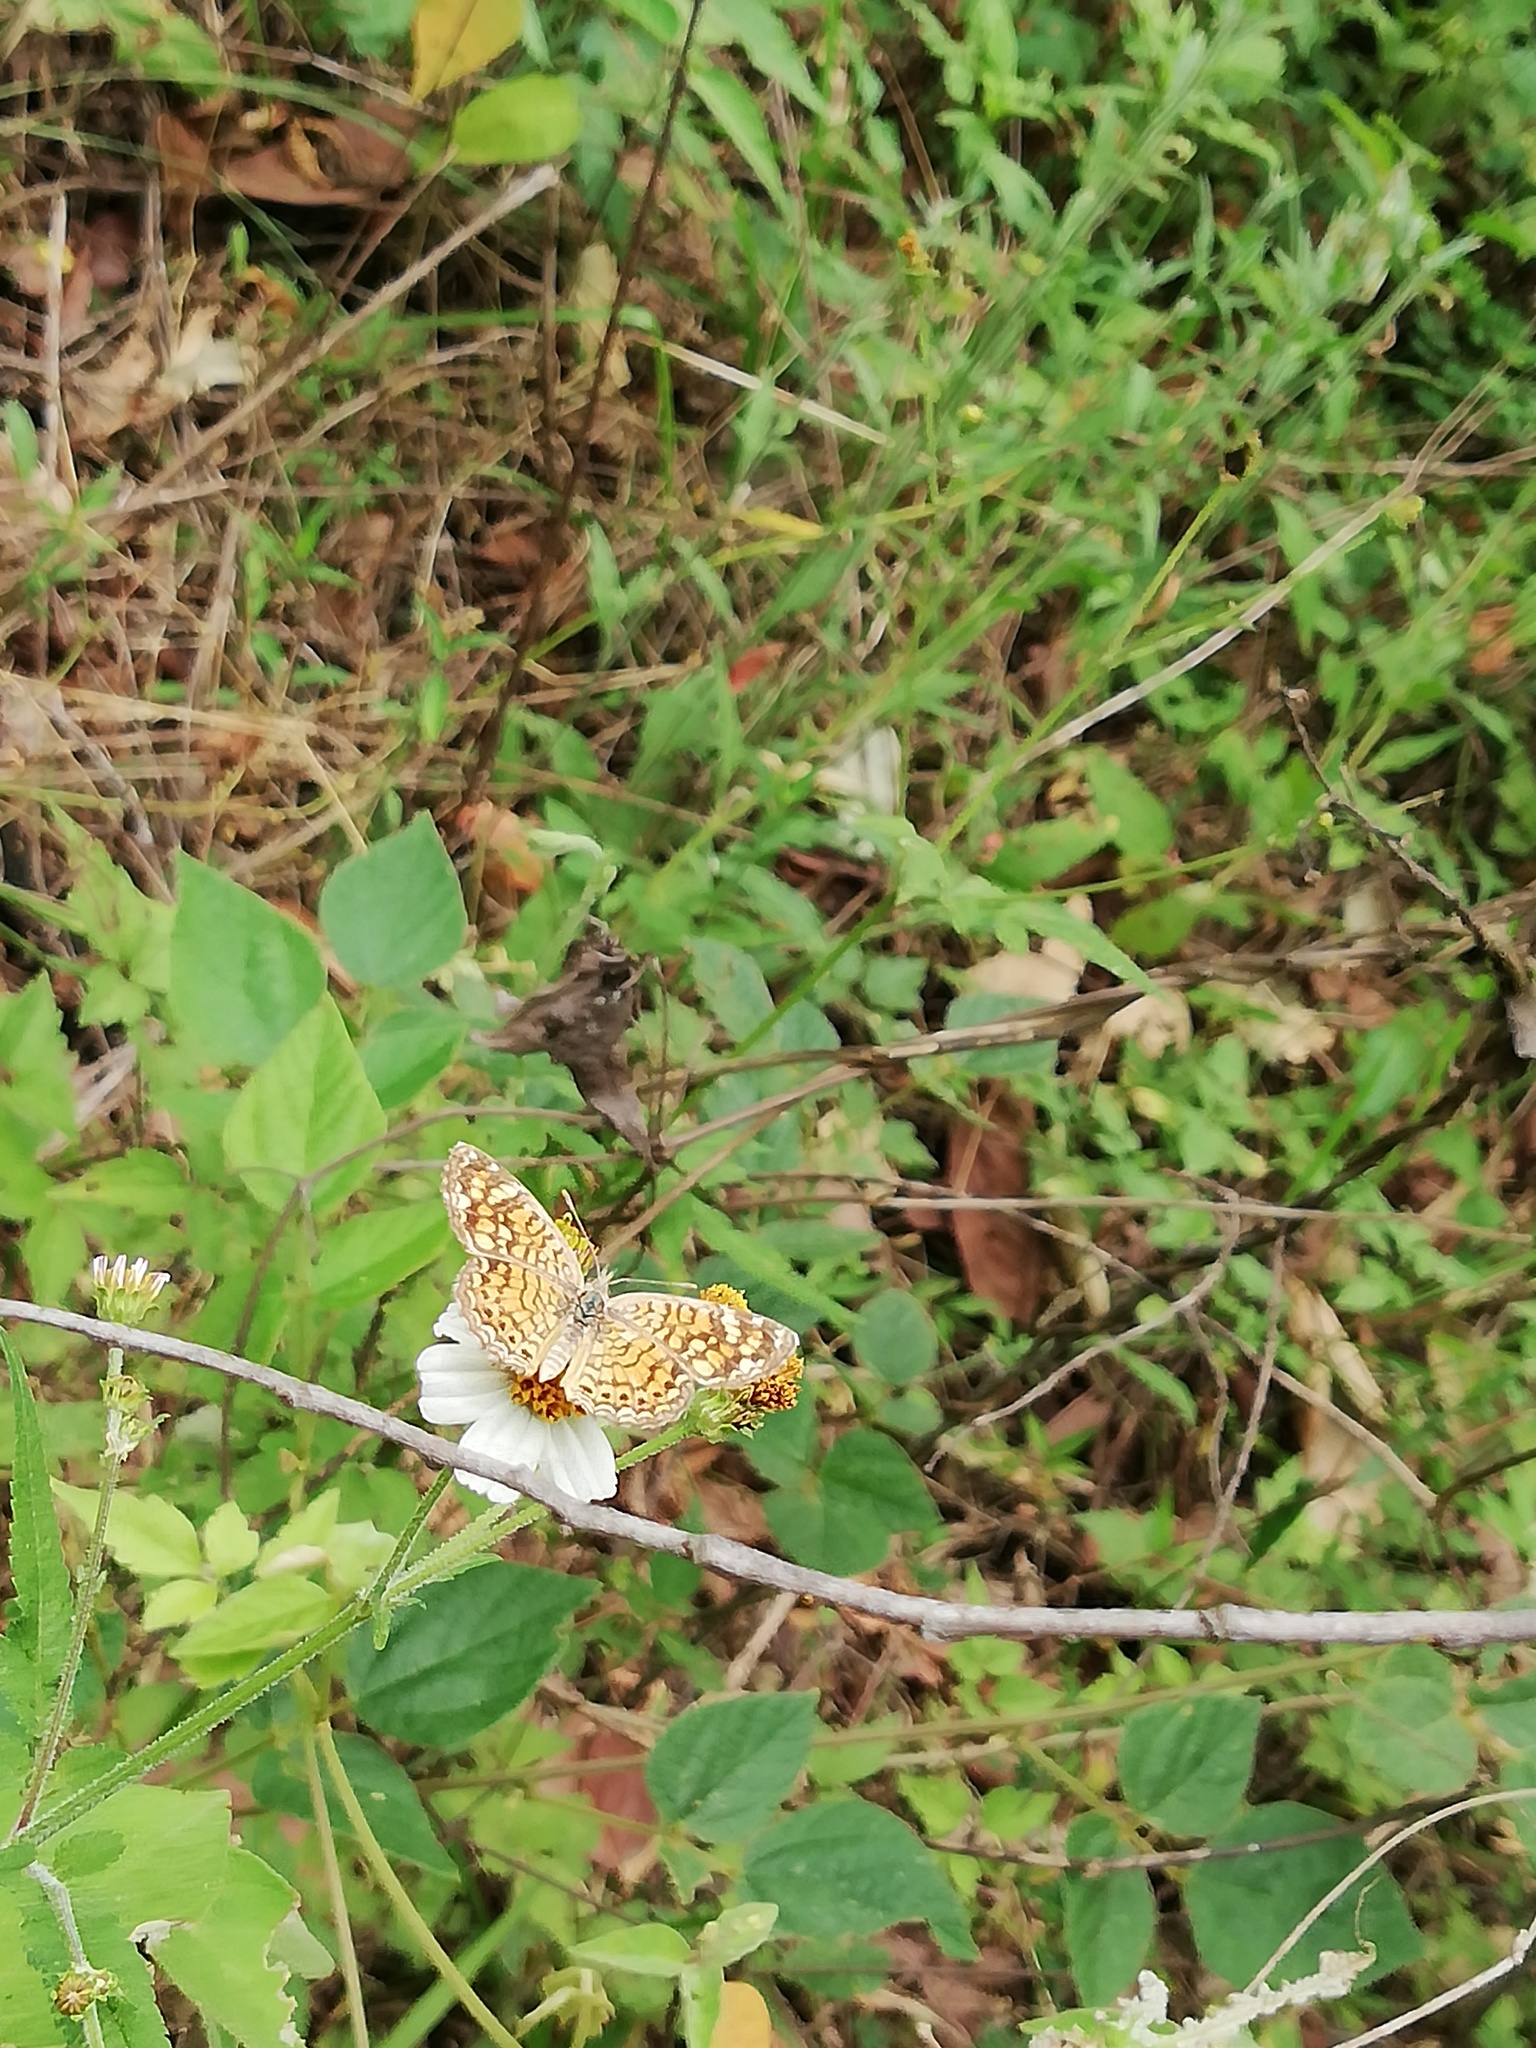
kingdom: Animalia
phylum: Arthropoda
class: Insecta
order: Lepidoptera
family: Nymphalidae
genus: Phyciodes
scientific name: Phyciodes vesta
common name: Vesta crescent
